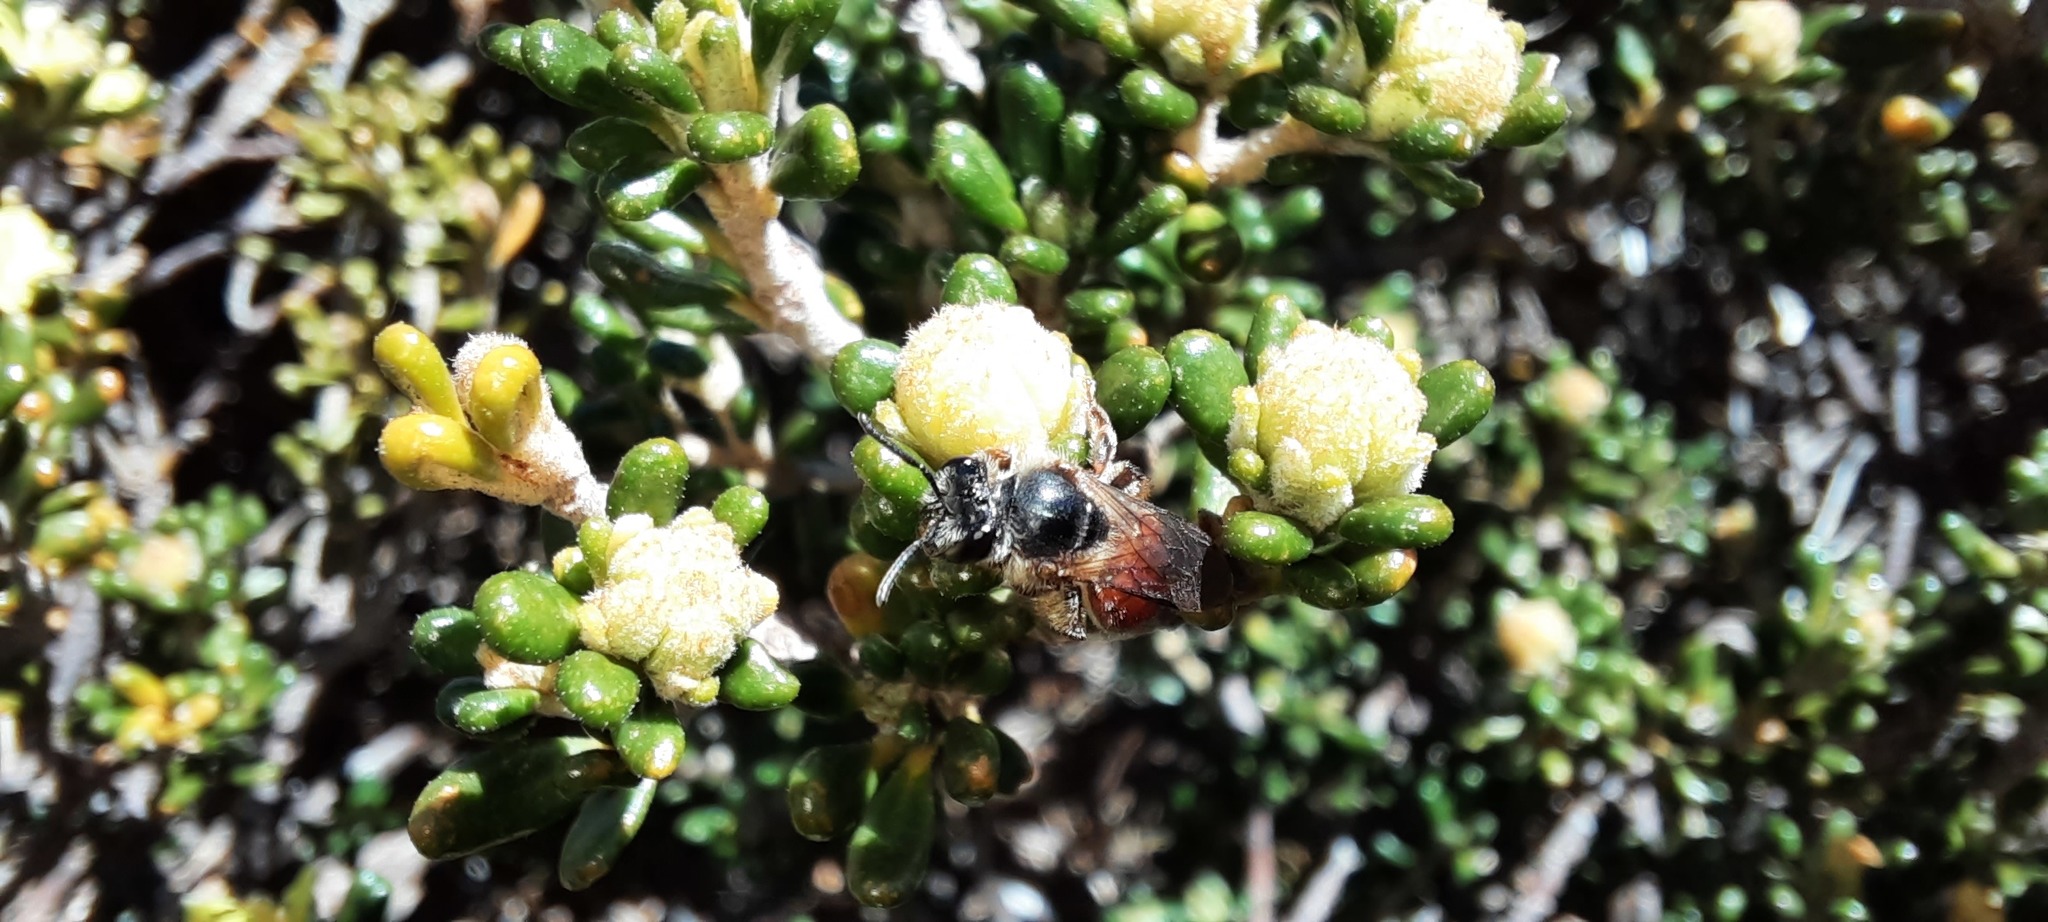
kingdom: Plantae
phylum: Tracheophyta
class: Magnoliopsida
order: Sapindales
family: Rutaceae
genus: Asterolasia
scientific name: Asterolasia trymalioides
